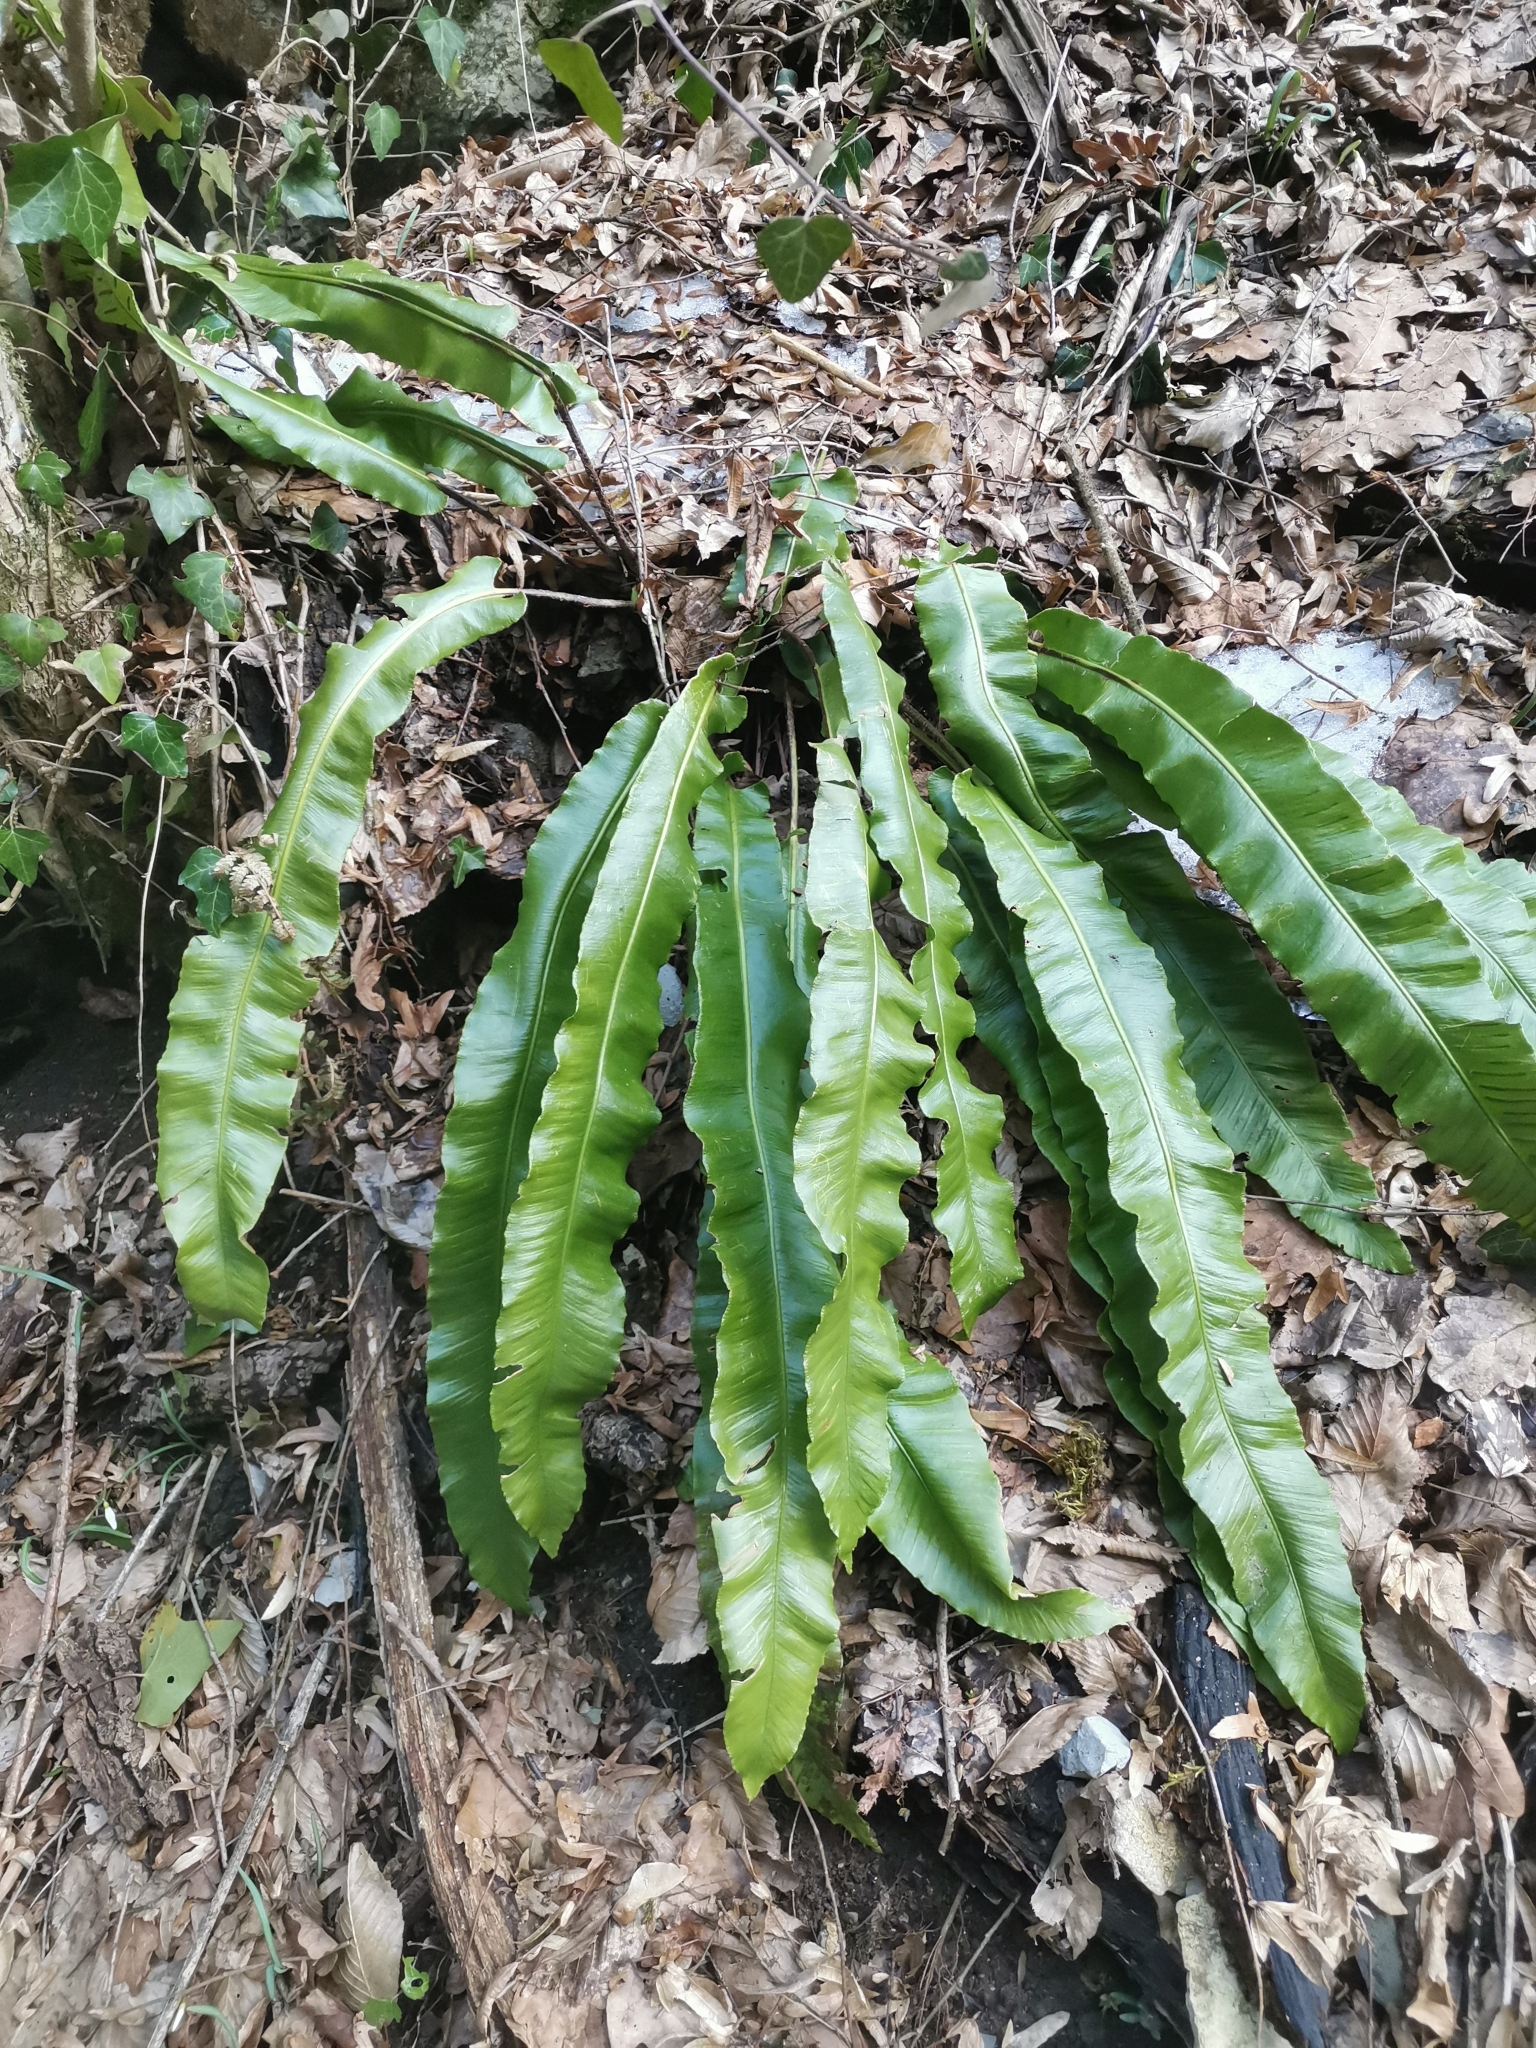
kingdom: Plantae
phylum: Tracheophyta
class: Polypodiopsida
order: Polypodiales
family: Aspleniaceae
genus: Asplenium
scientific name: Asplenium scolopendrium
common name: Hart's-tongue fern
